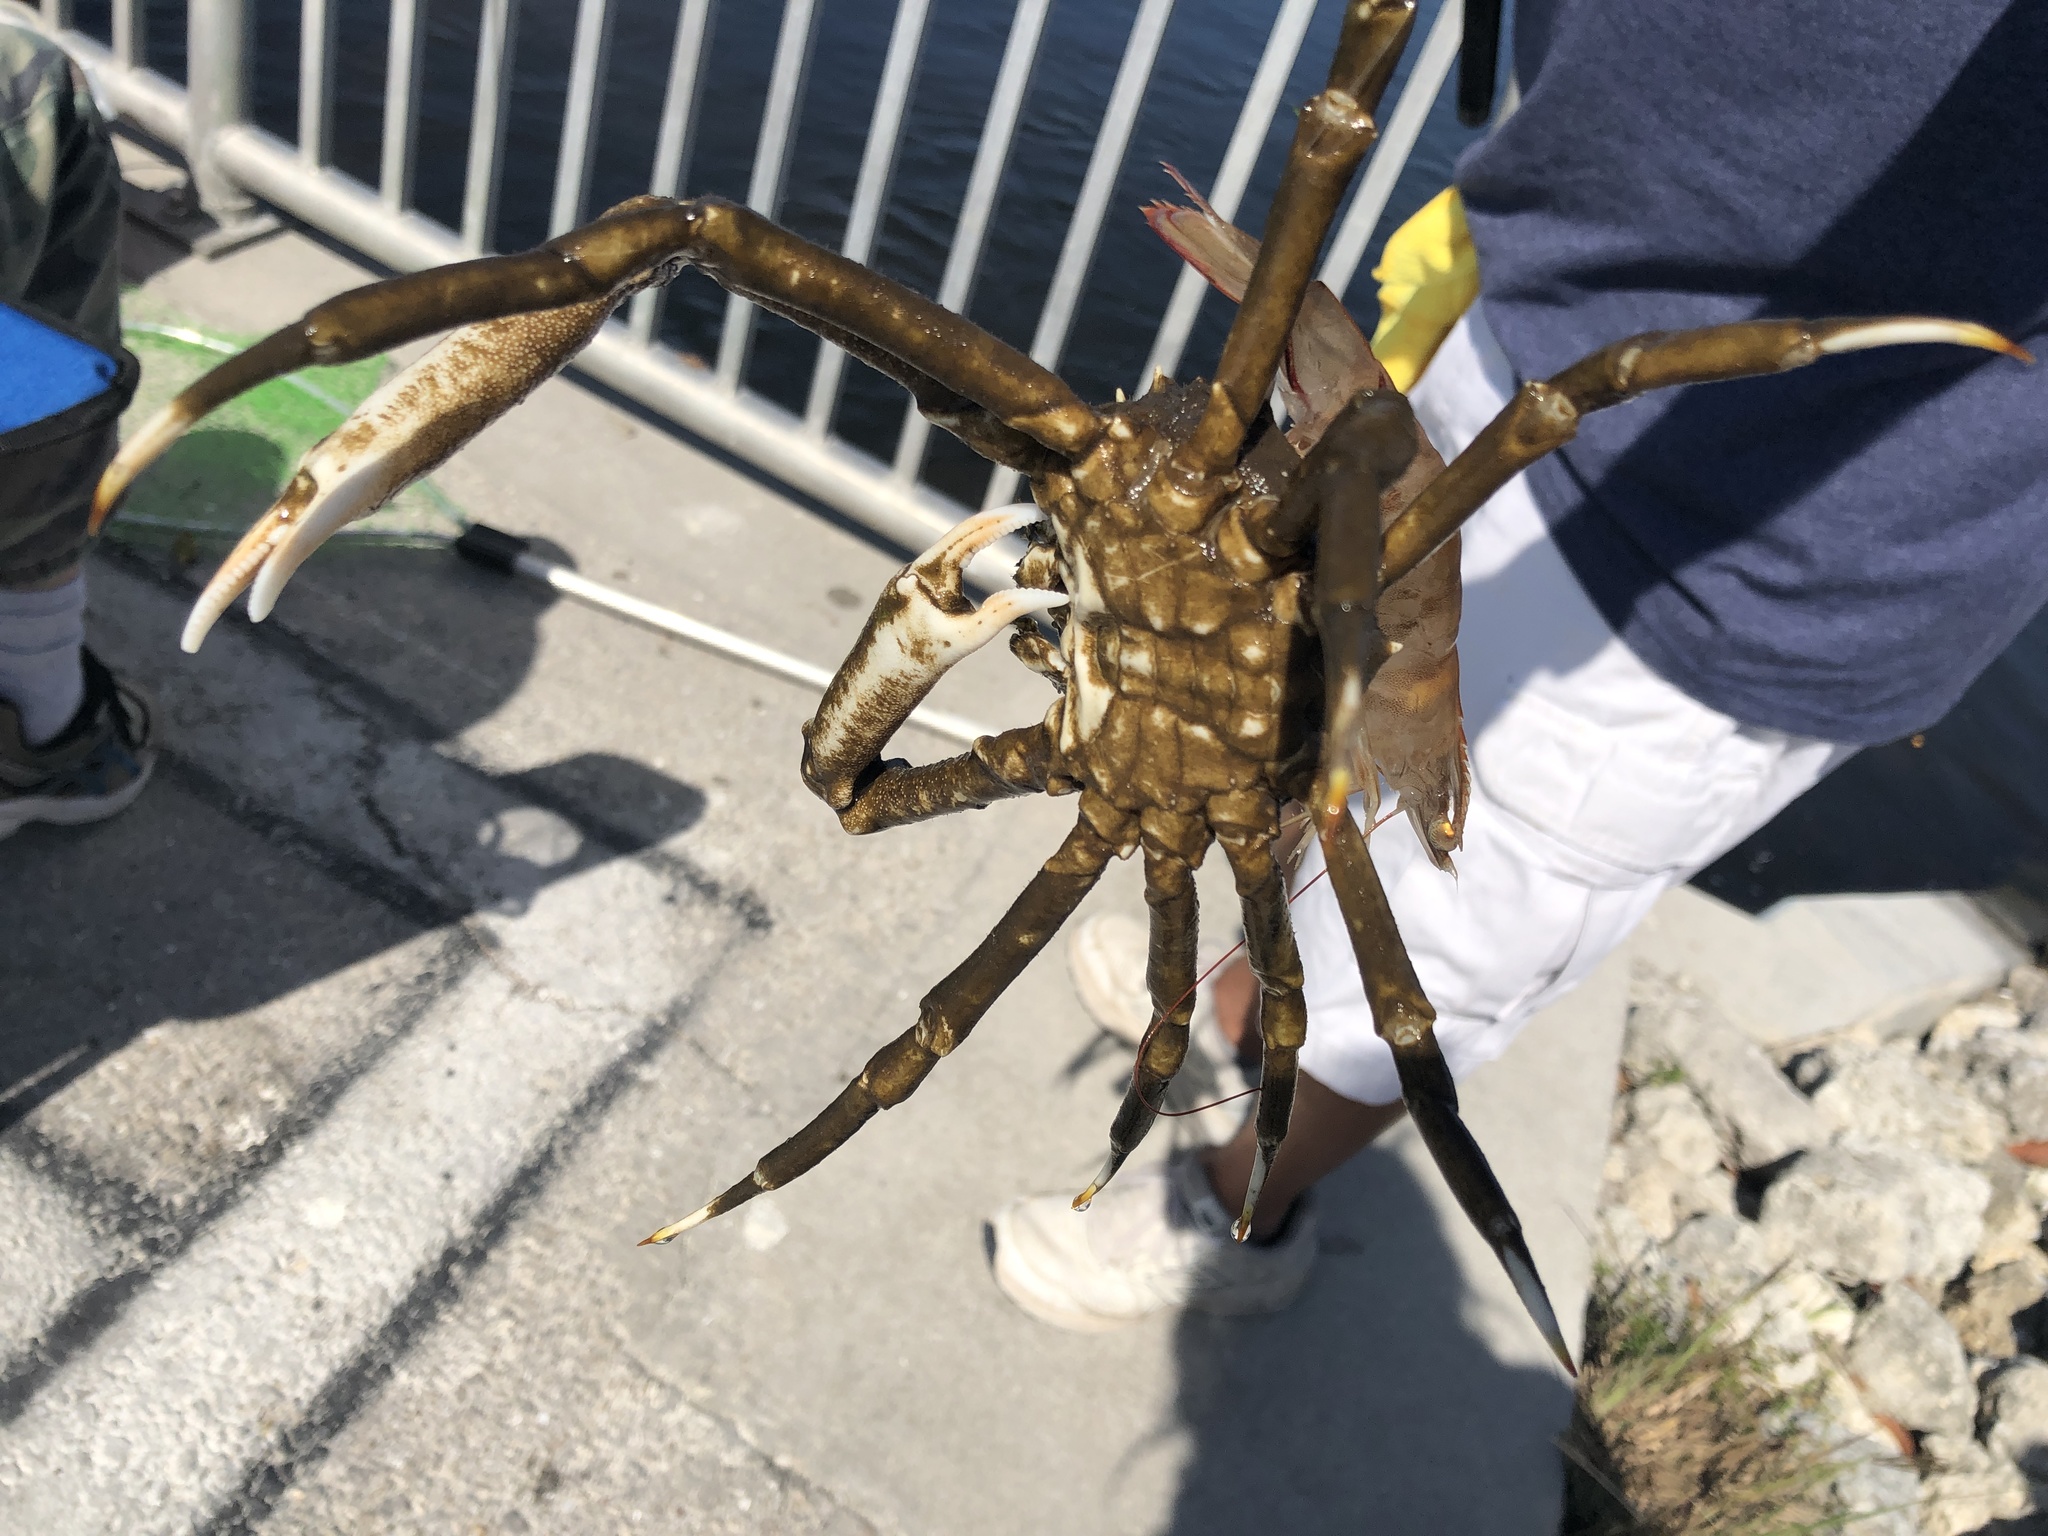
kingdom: Animalia
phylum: Arthropoda
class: Malacostraca
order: Decapoda
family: Epialtidae
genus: Libinia
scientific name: Libinia emarginata
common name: Common spider crab
